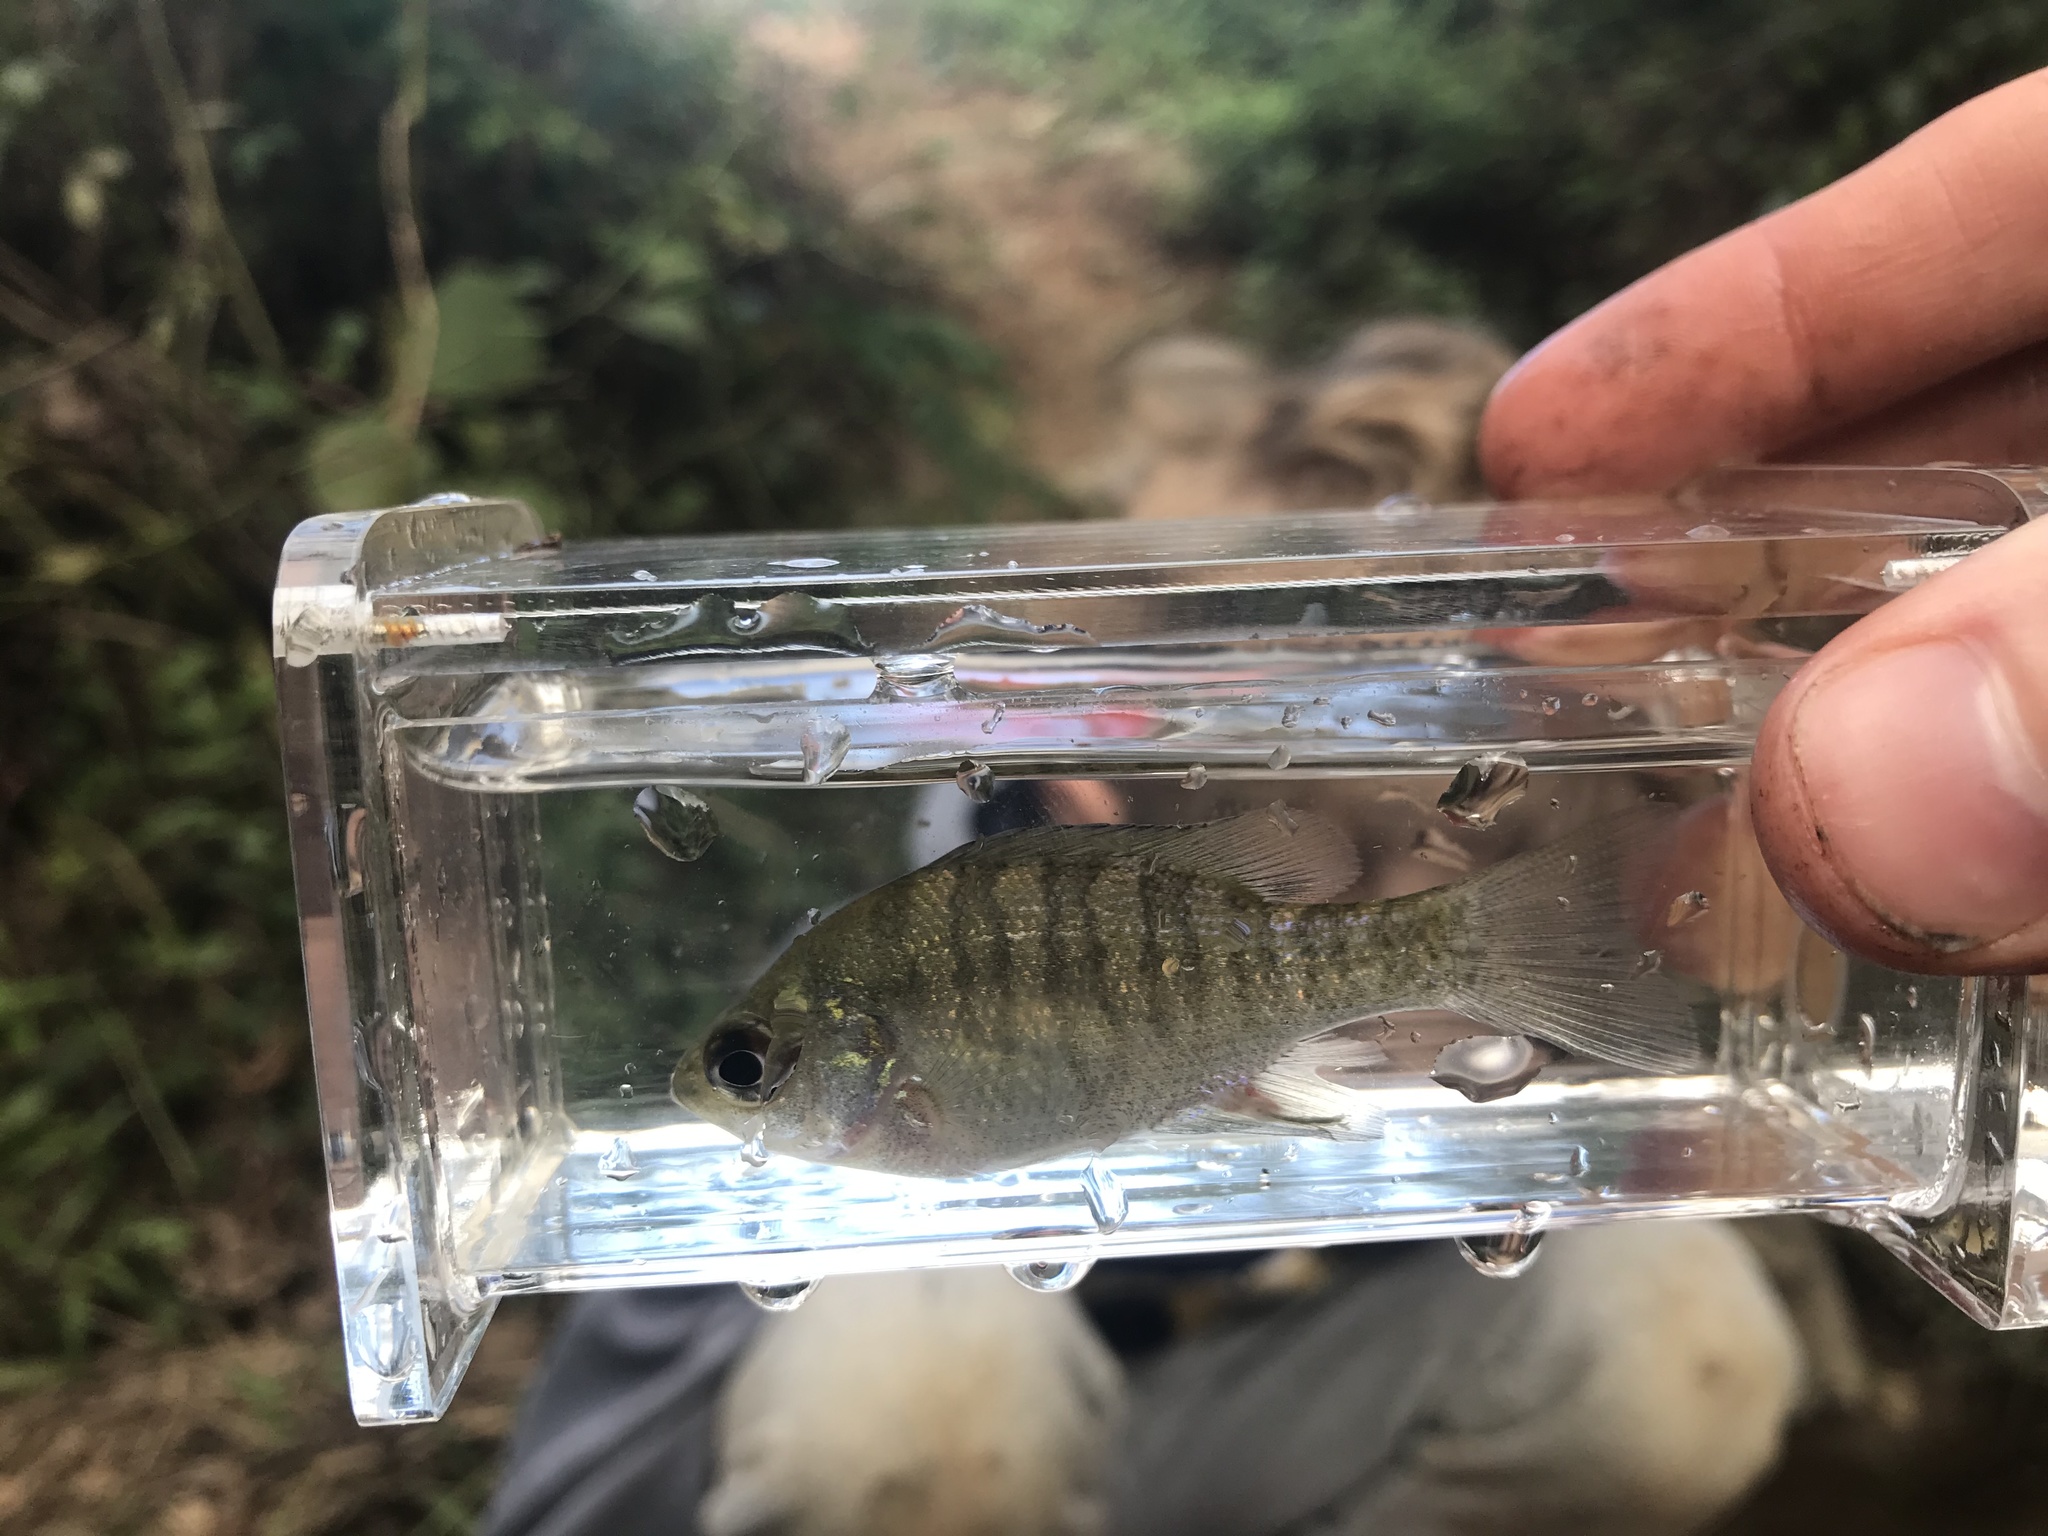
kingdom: Animalia
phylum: Chordata
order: Perciformes
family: Centrarchidae
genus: Lepomis
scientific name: Lepomis macrochirus
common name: Bluegill
